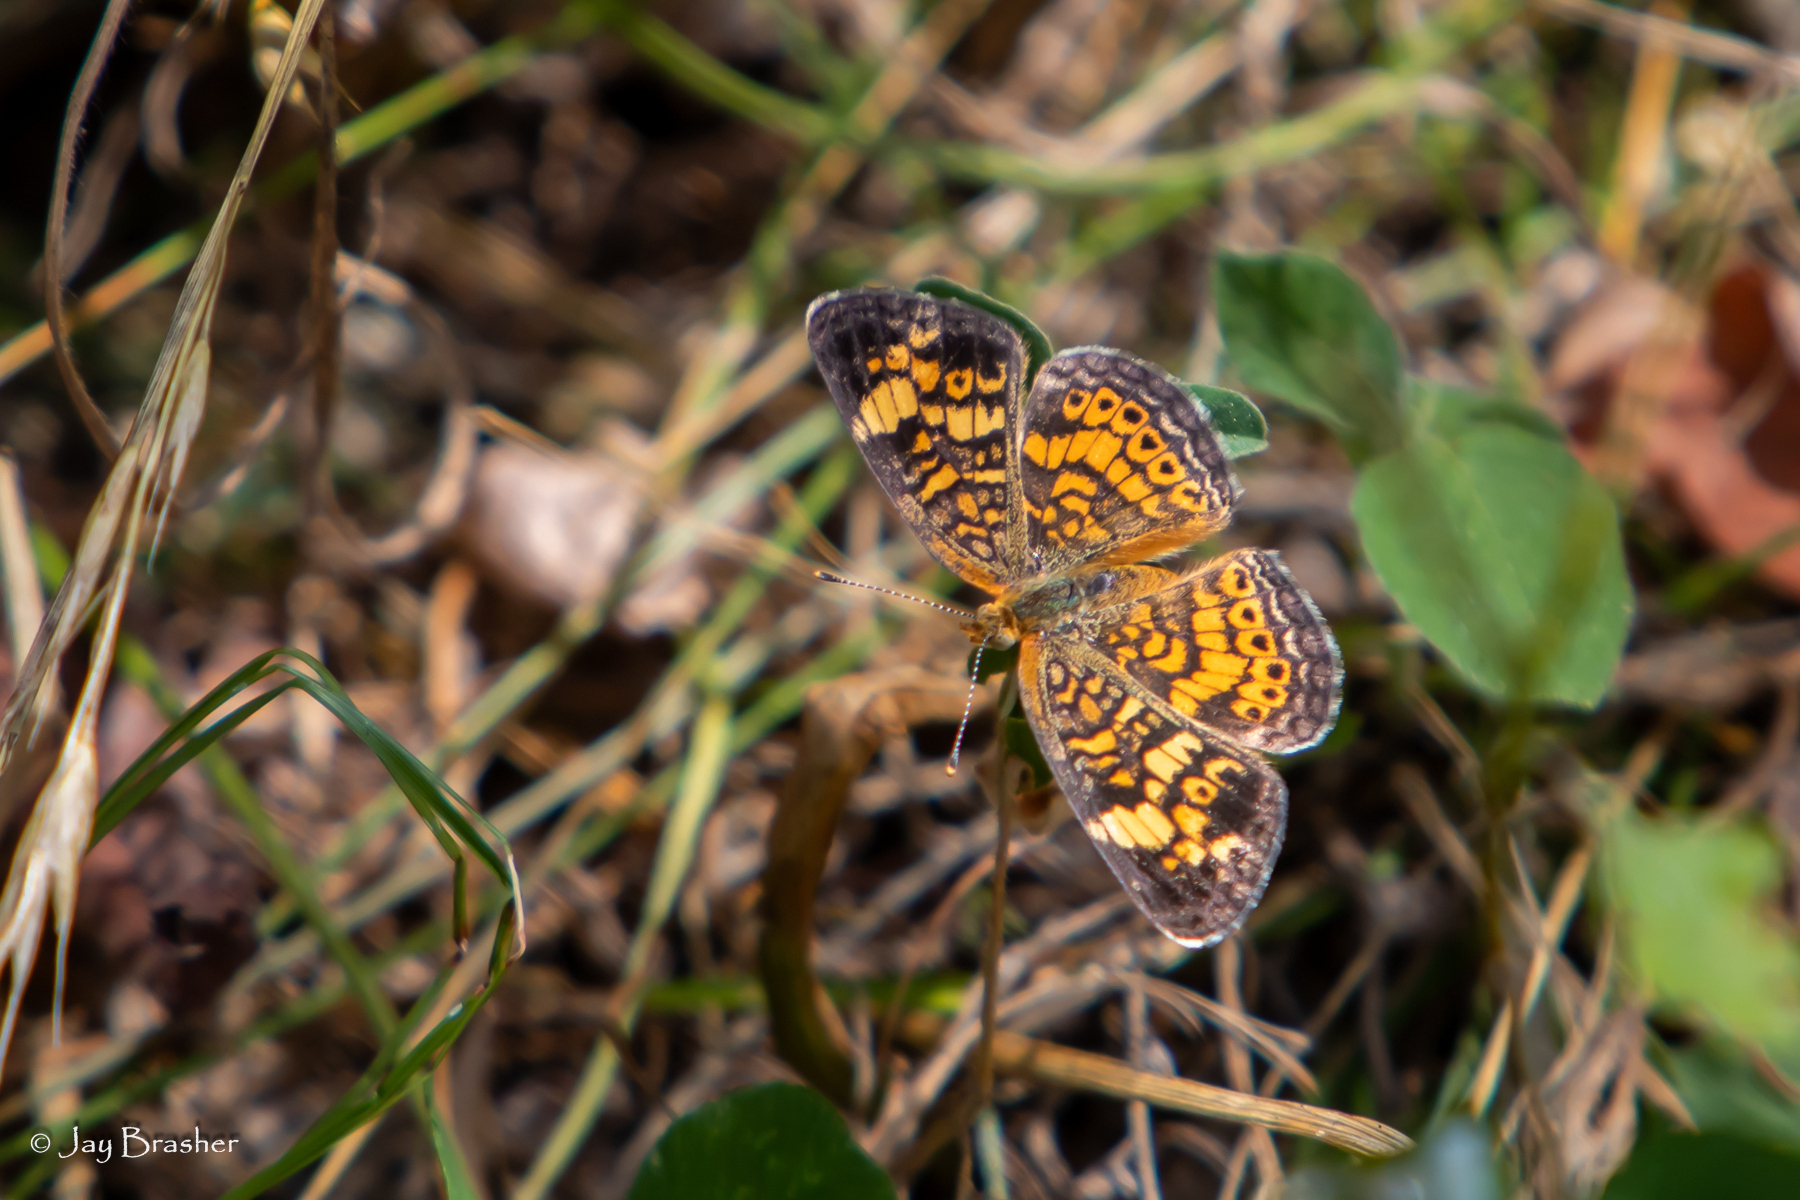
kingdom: Animalia
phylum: Arthropoda
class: Insecta
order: Lepidoptera
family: Nymphalidae
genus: Phyciodes
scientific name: Phyciodes tharos
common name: Pearl crescent
